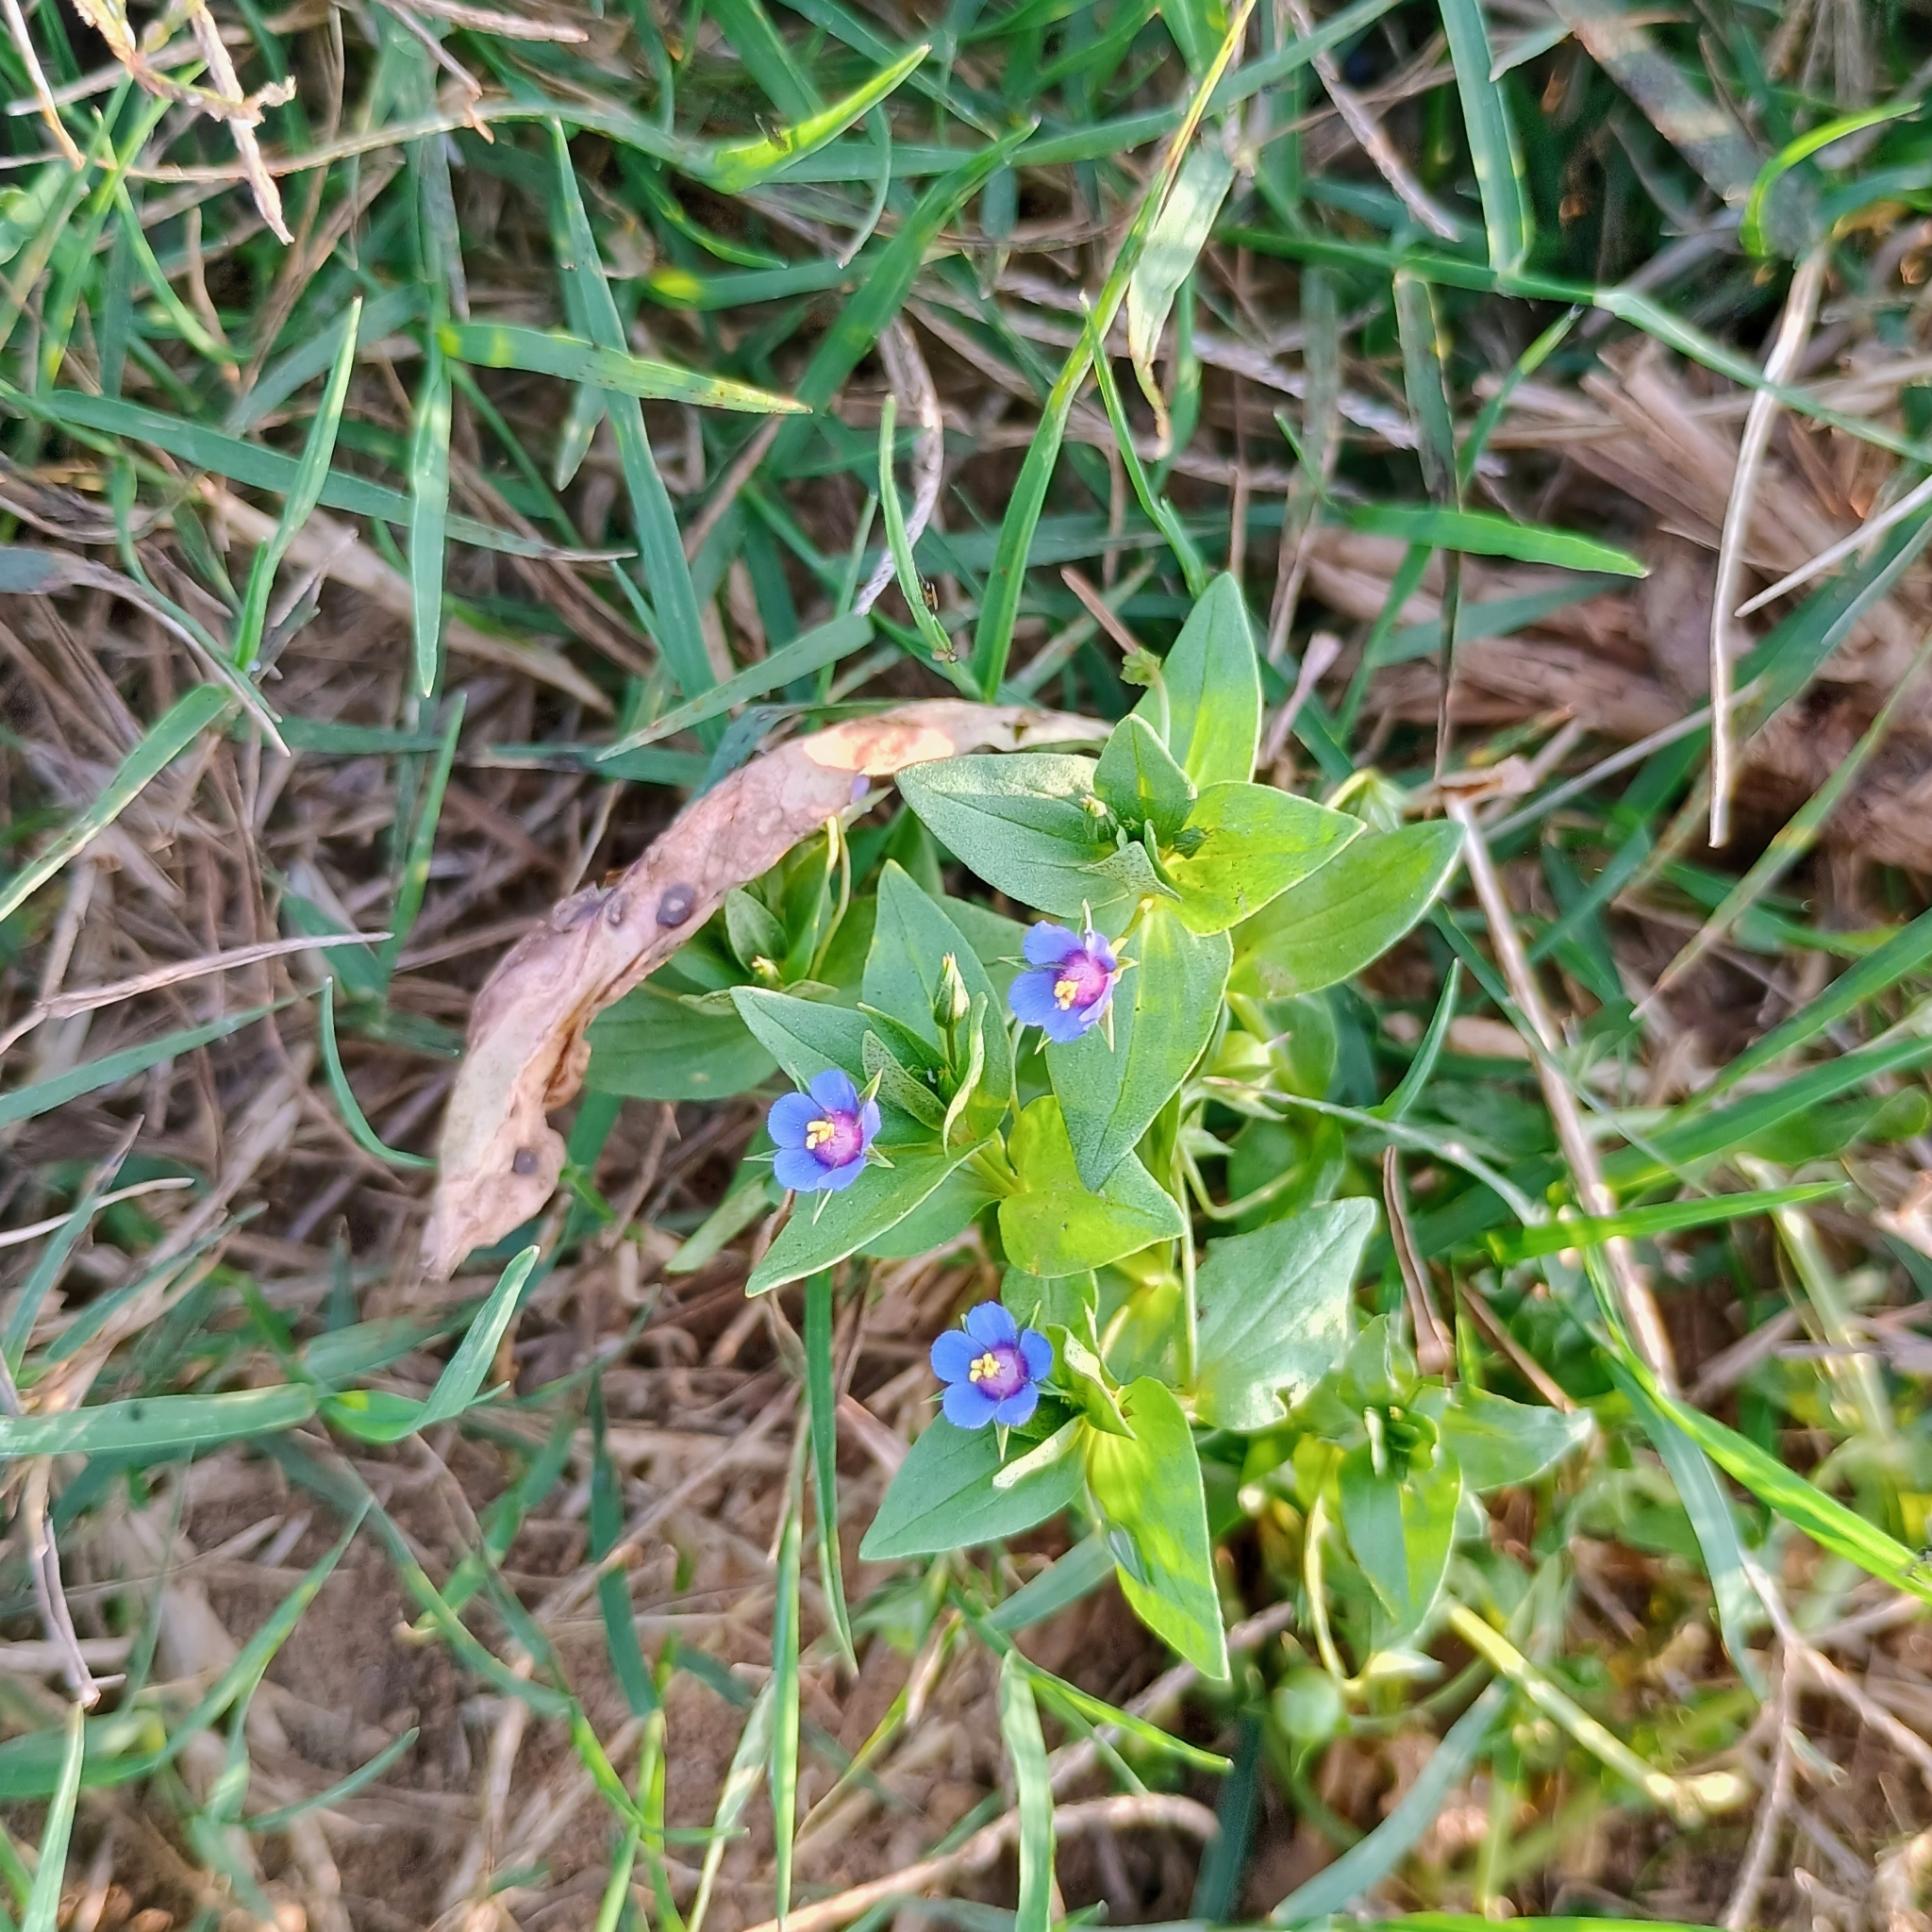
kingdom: Plantae
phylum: Tracheophyta
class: Magnoliopsida
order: Ericales
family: Primulaceae
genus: Lysimachia
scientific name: Lysimachia loeflingii
